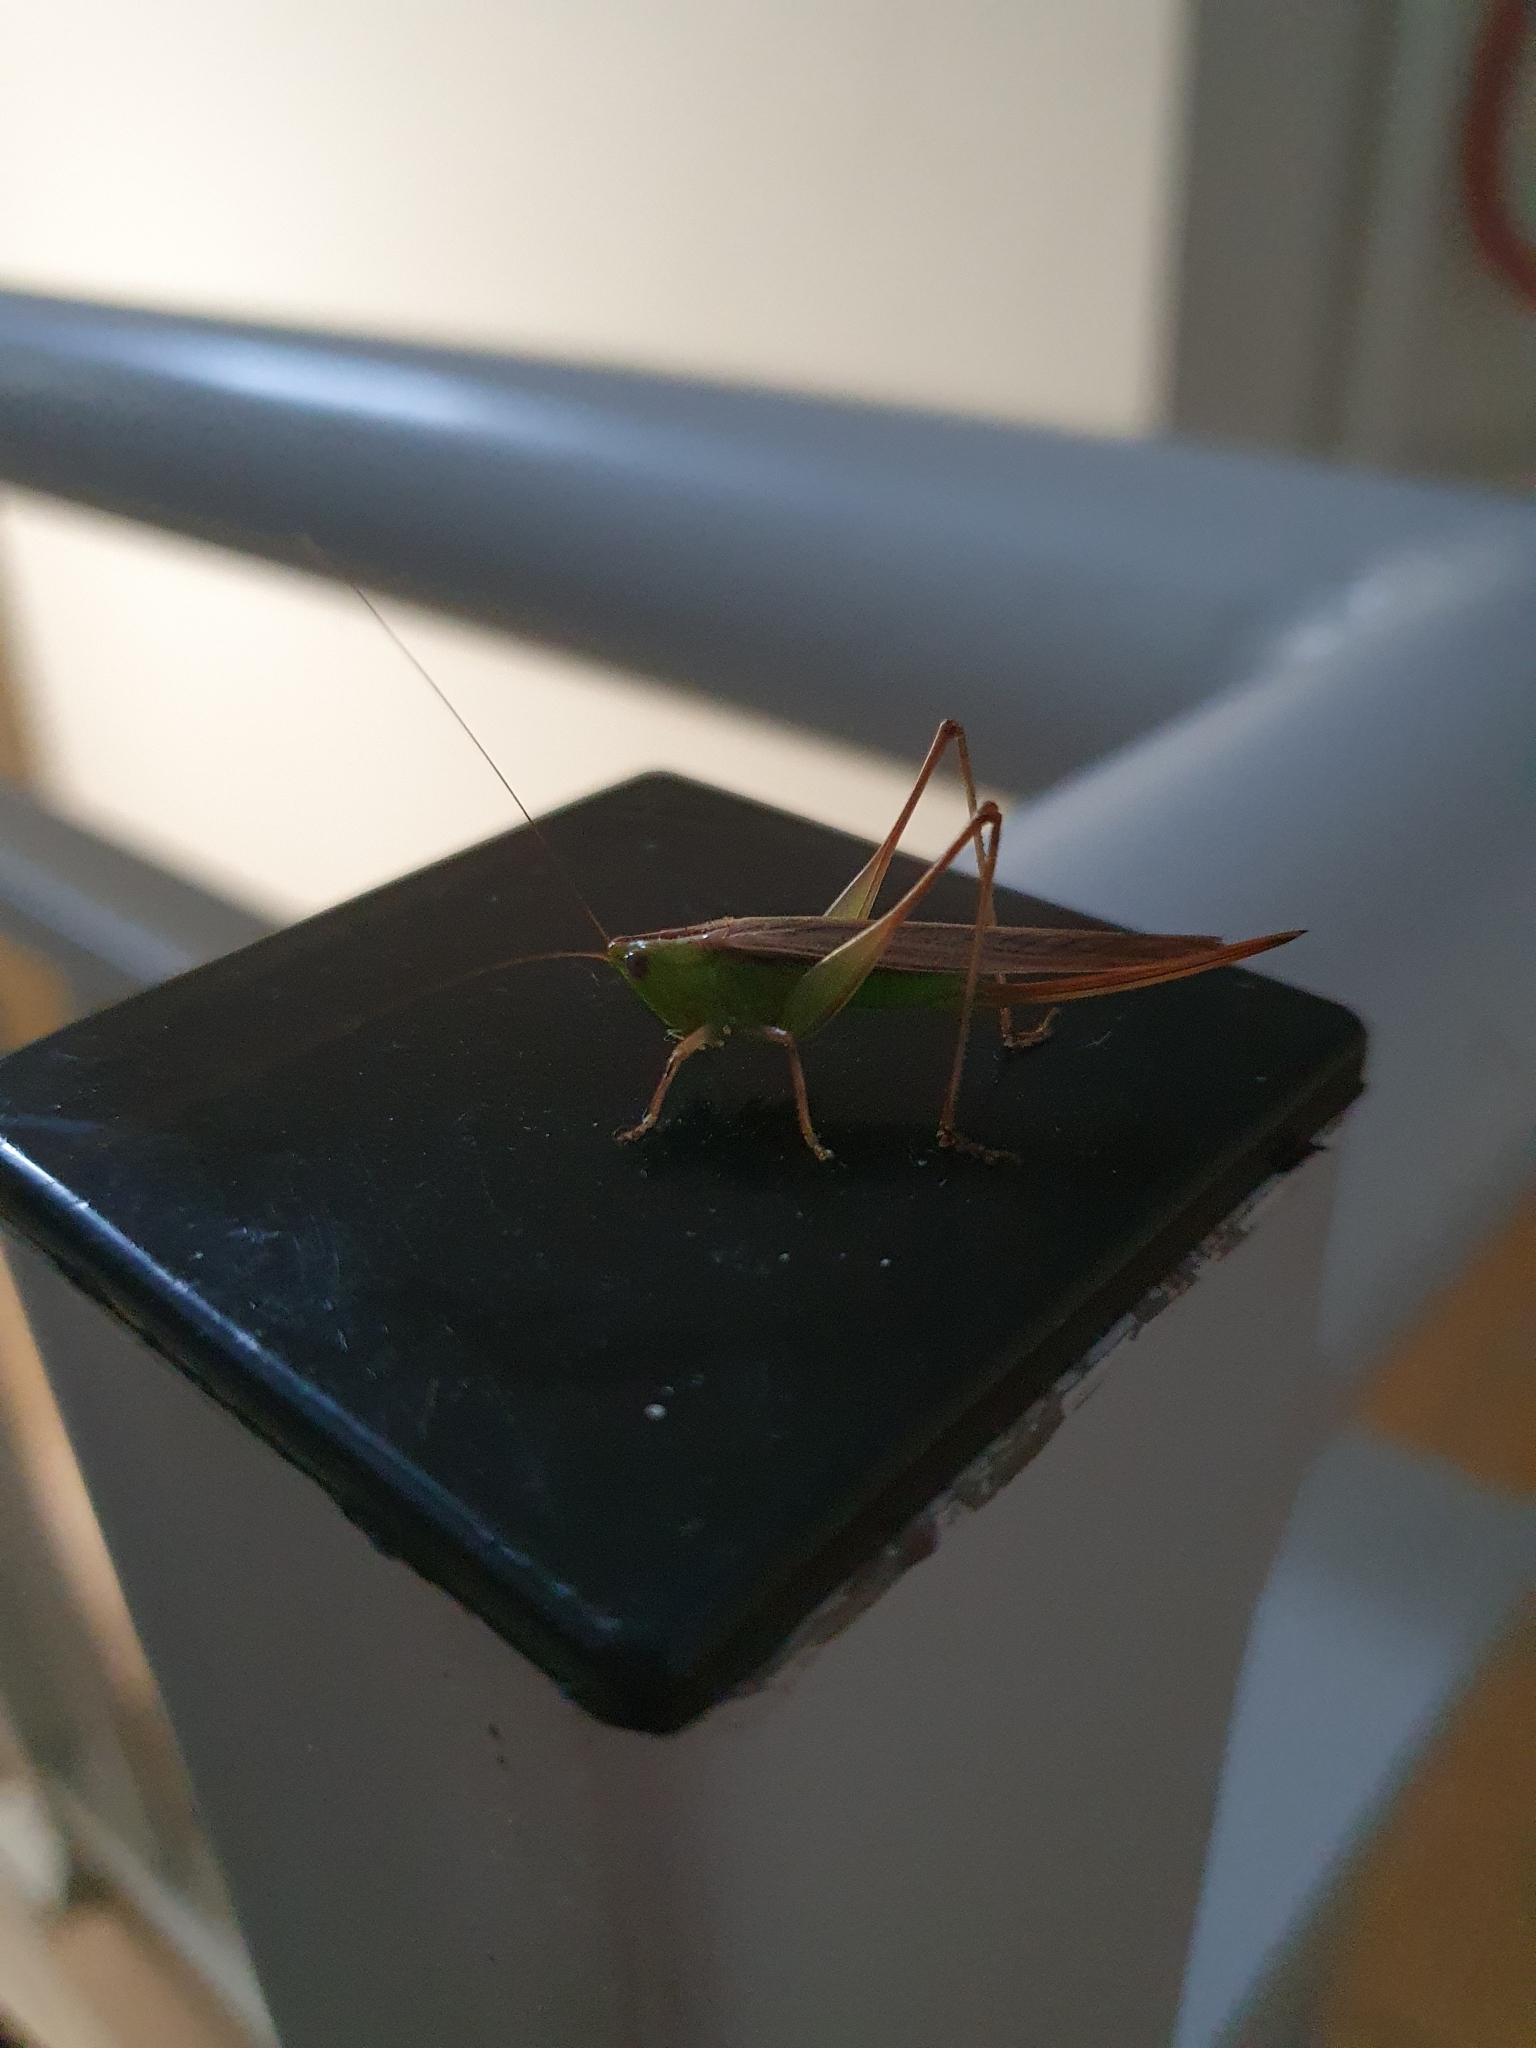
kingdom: Animalia
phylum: Arthropoda
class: Insecta
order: Orthoptera
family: Tettigoniidae
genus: Conocephalus
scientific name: Conocephalus albescens
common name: Whitish meadow katydid
